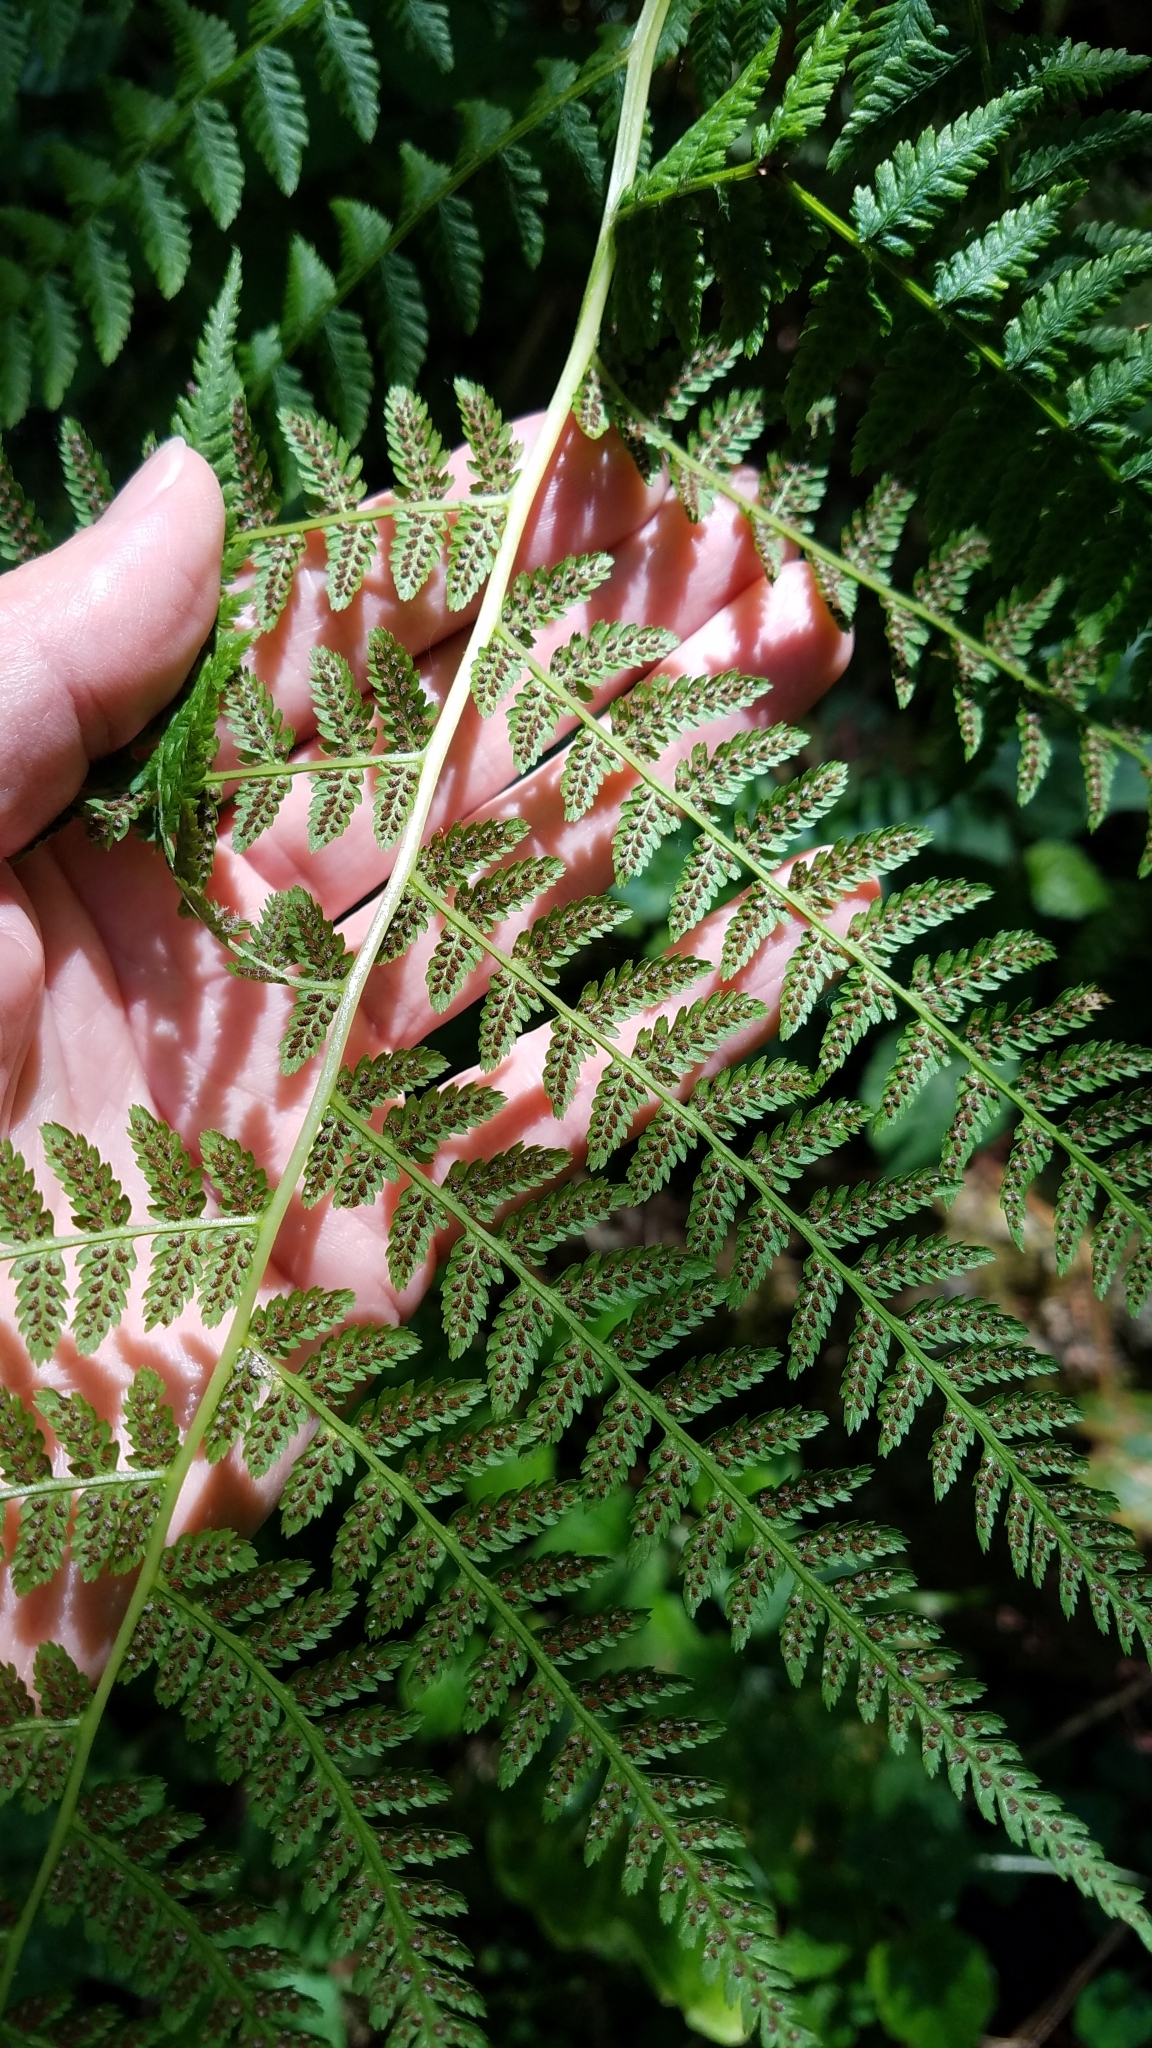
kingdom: Plantae
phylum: Tracheophyta
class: Polypodiopsida
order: Polypodiales
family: Athyriaceae
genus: Athyrium
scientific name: Athyrium filix-femina
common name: Lady fern
